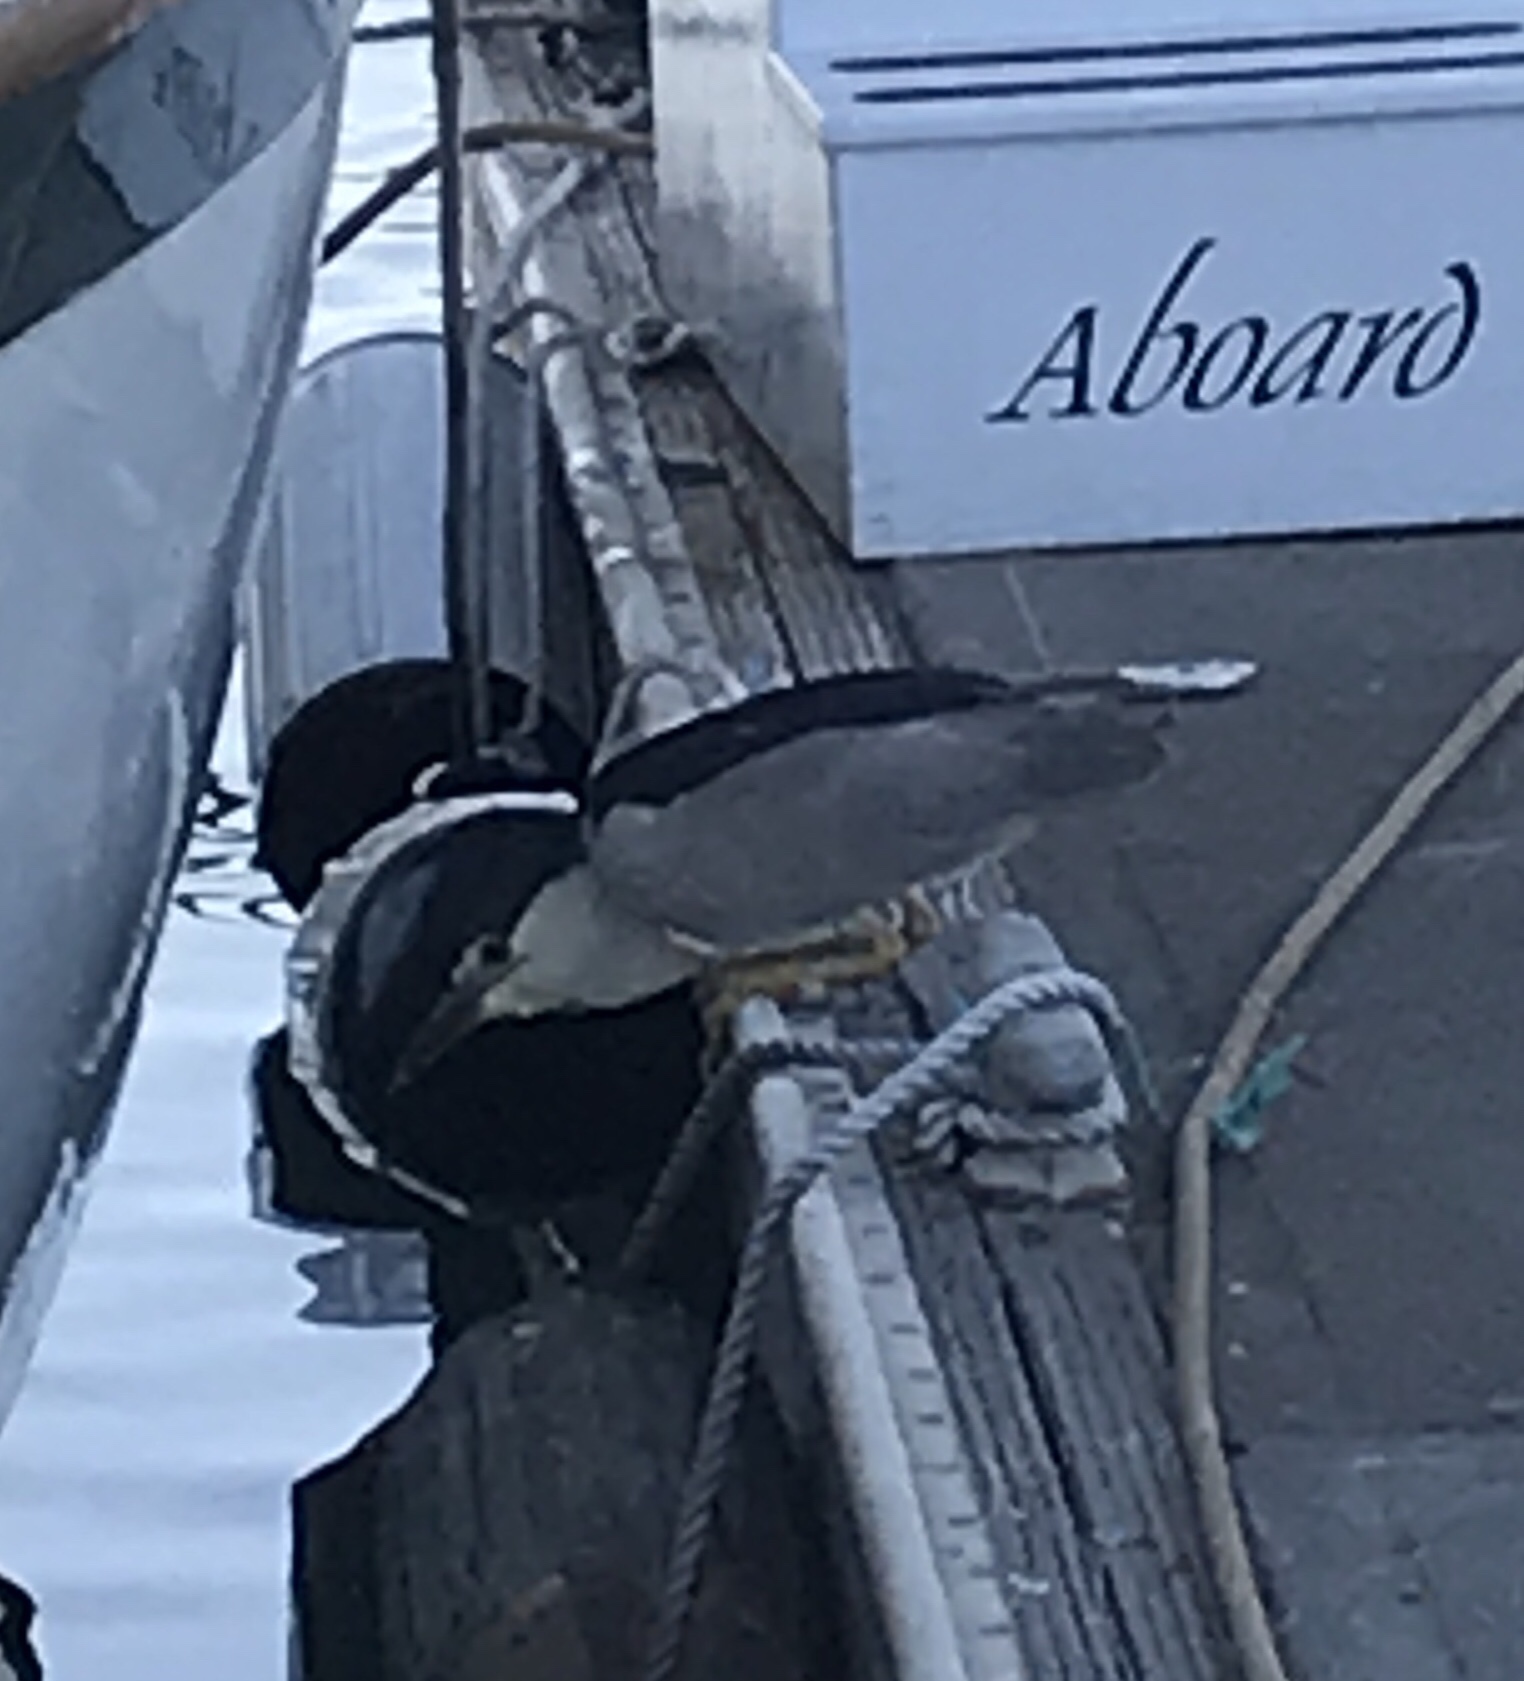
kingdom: Animalia
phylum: Chordata
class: Aves
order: Pelecaniformes
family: Ardeidae
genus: Nycticorax
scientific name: Nycticorax nycticorax
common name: Black-crowned night heron
